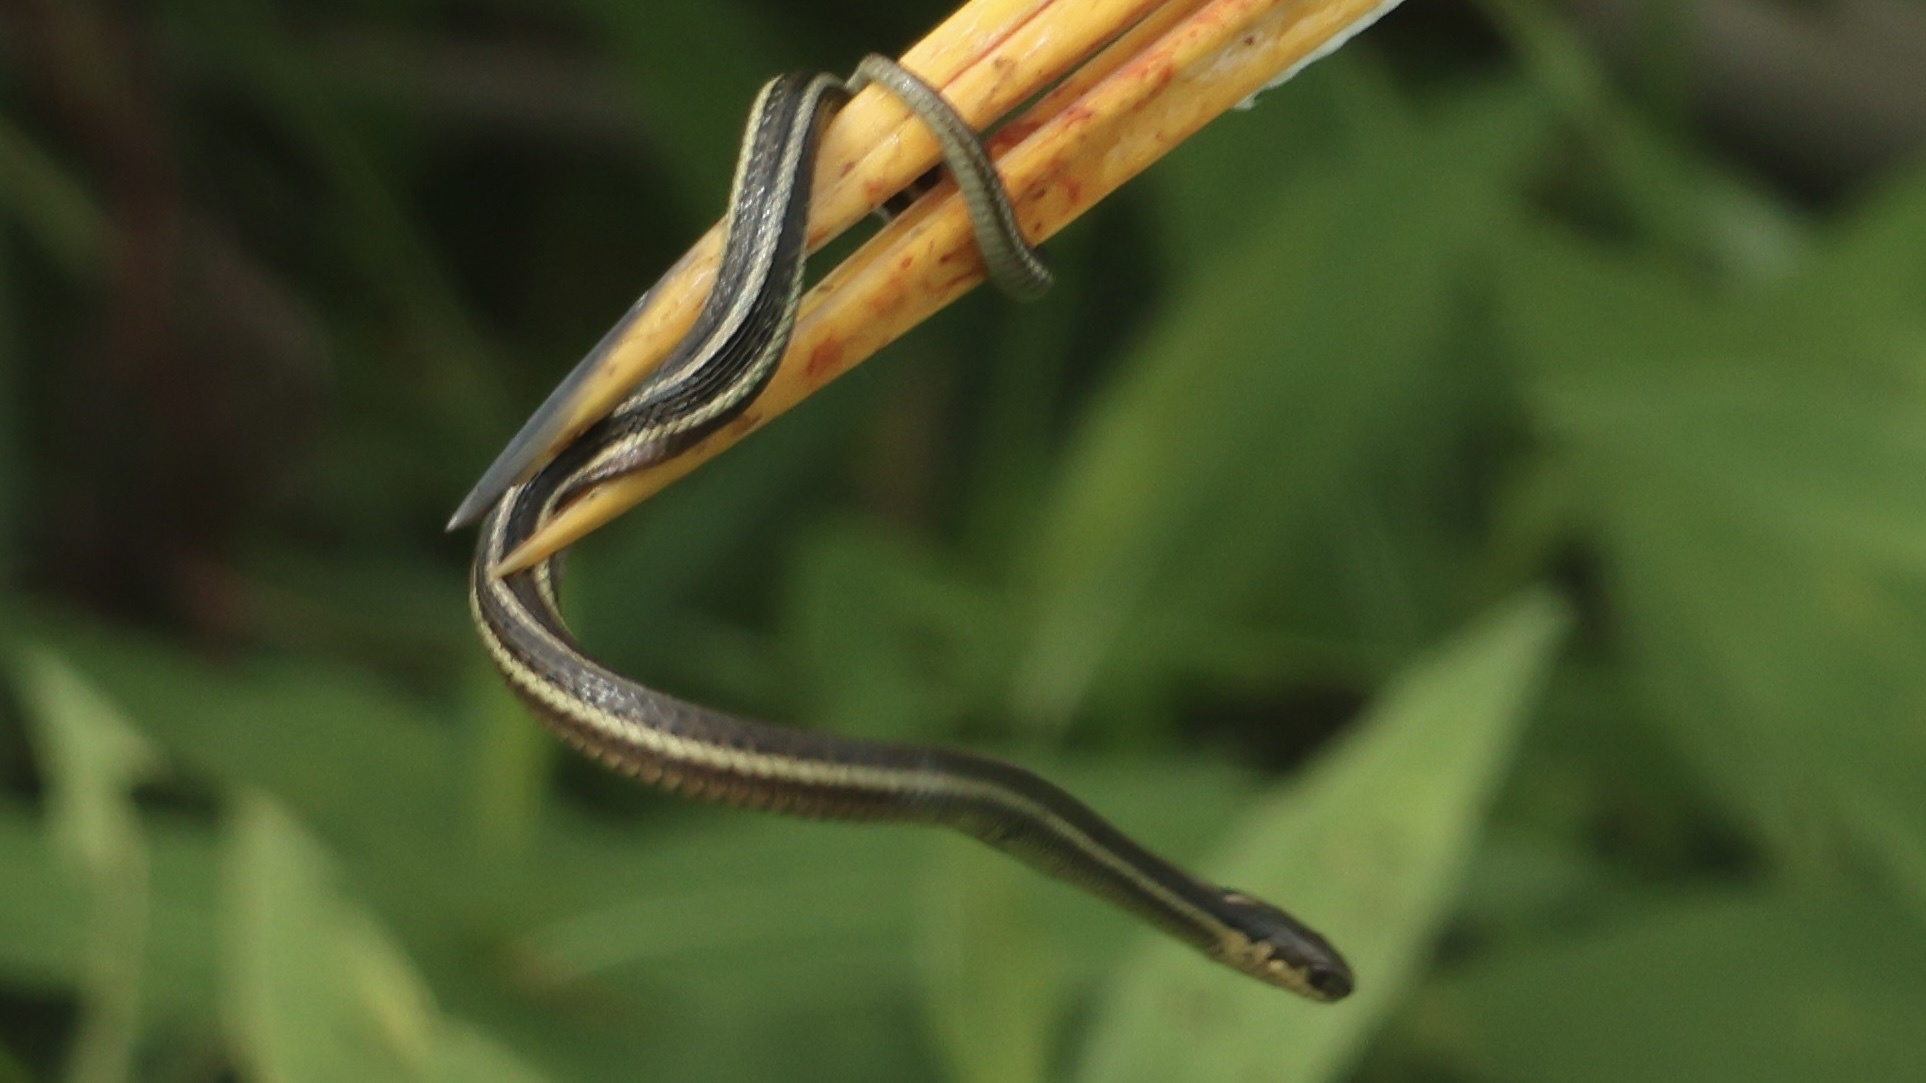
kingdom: Animalia
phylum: Chordata
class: Squamata
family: Colubridae
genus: Thamnophis
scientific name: Thamnophis butleri
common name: Butler's garter snake
